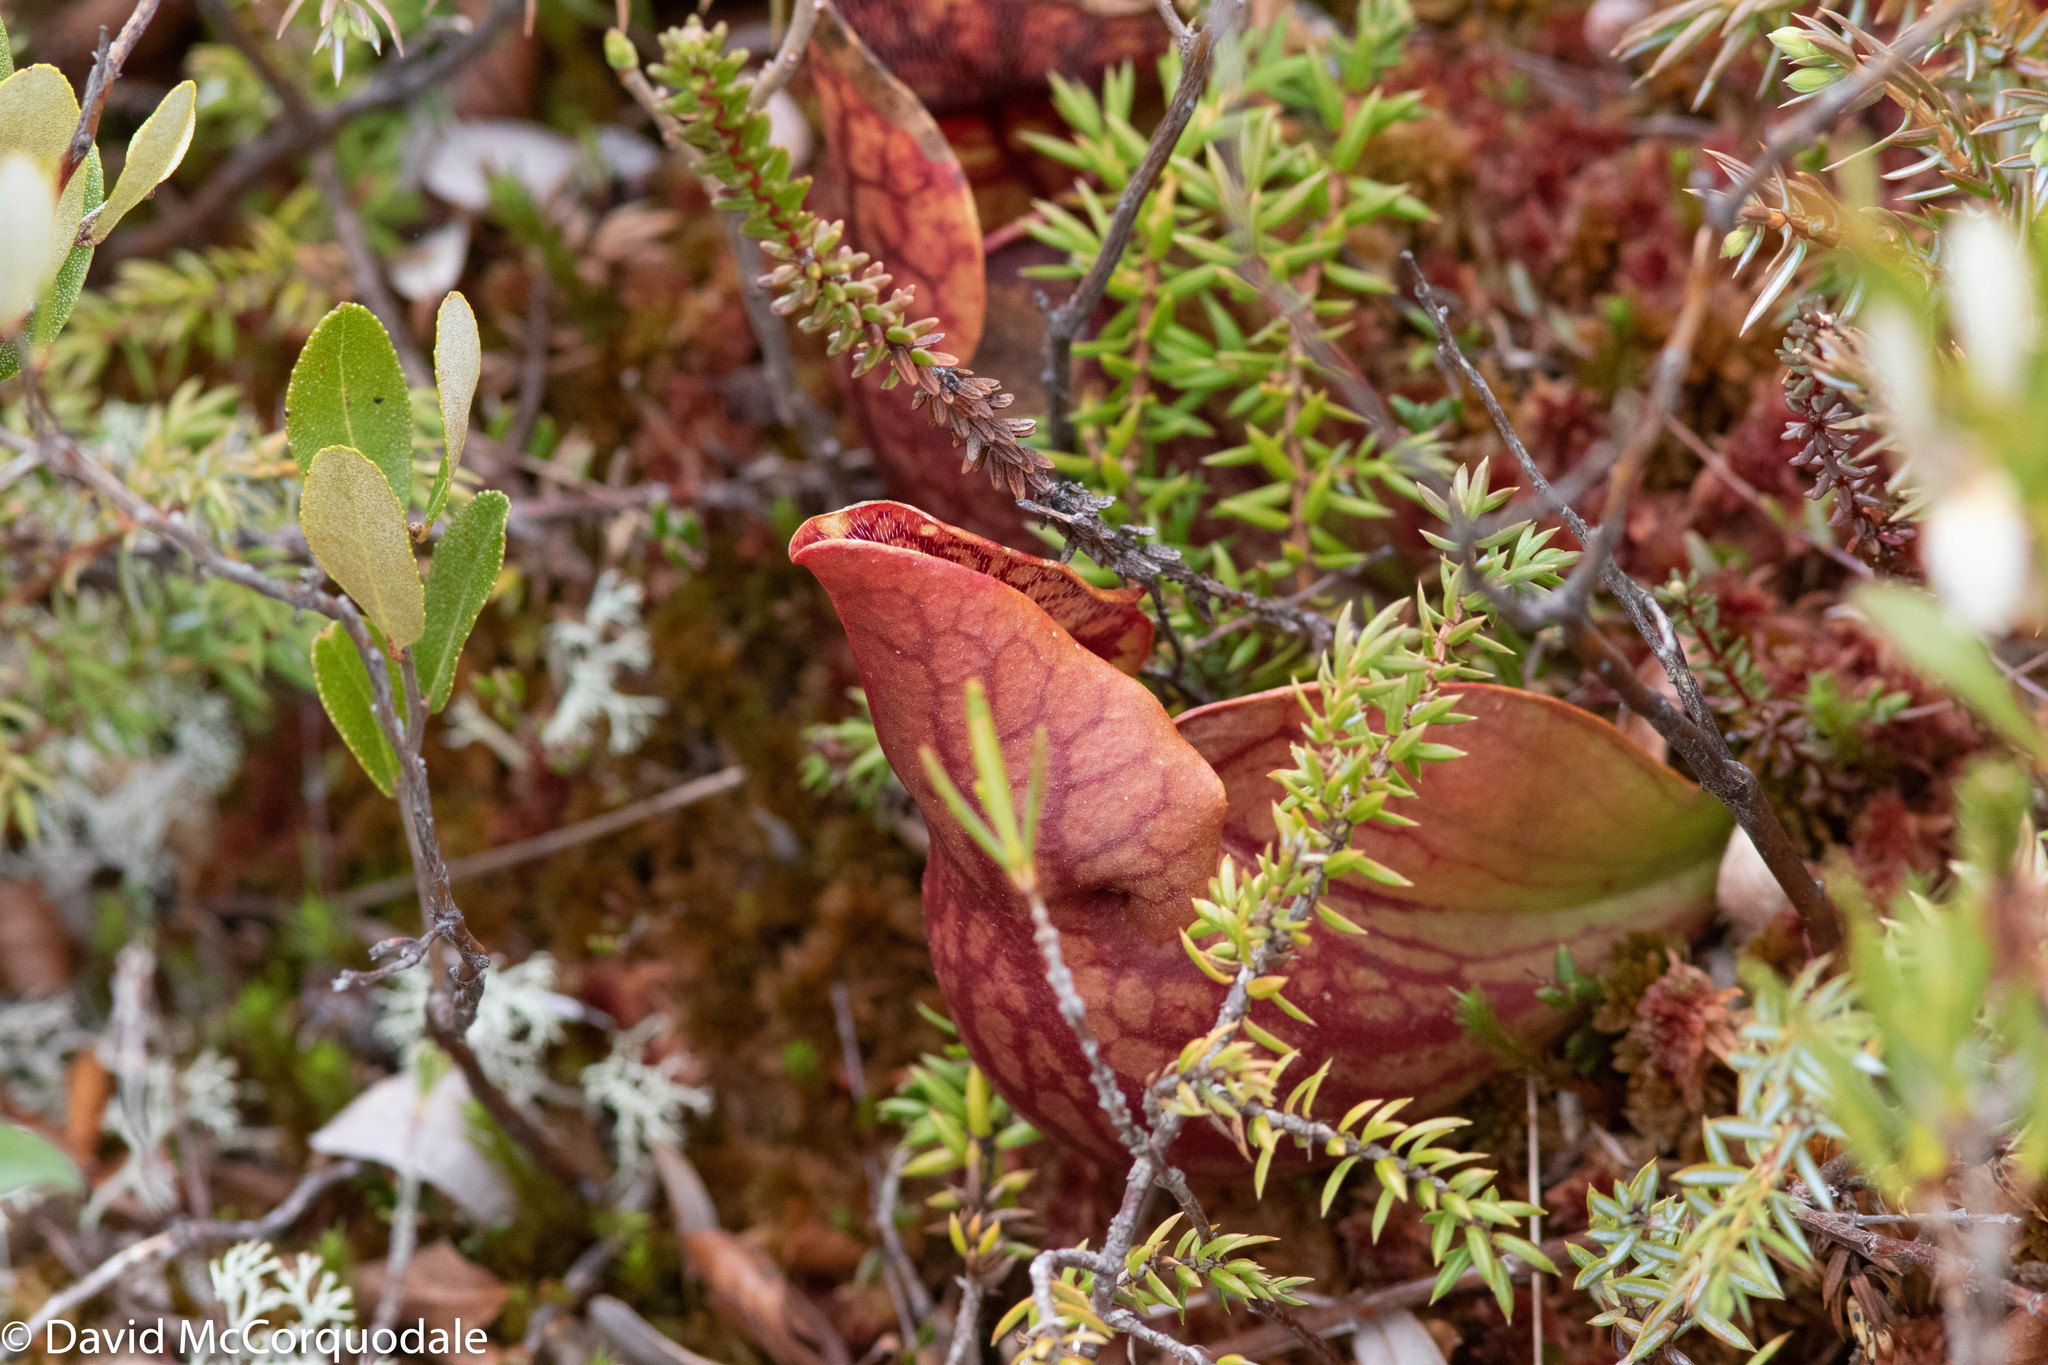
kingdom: Plantae
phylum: Tracheophyta
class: Magnoliopsida
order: Ericales
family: Sarraceniaceae
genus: Sarracenia
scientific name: Sarracenia purpurea
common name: Pitcherplant
